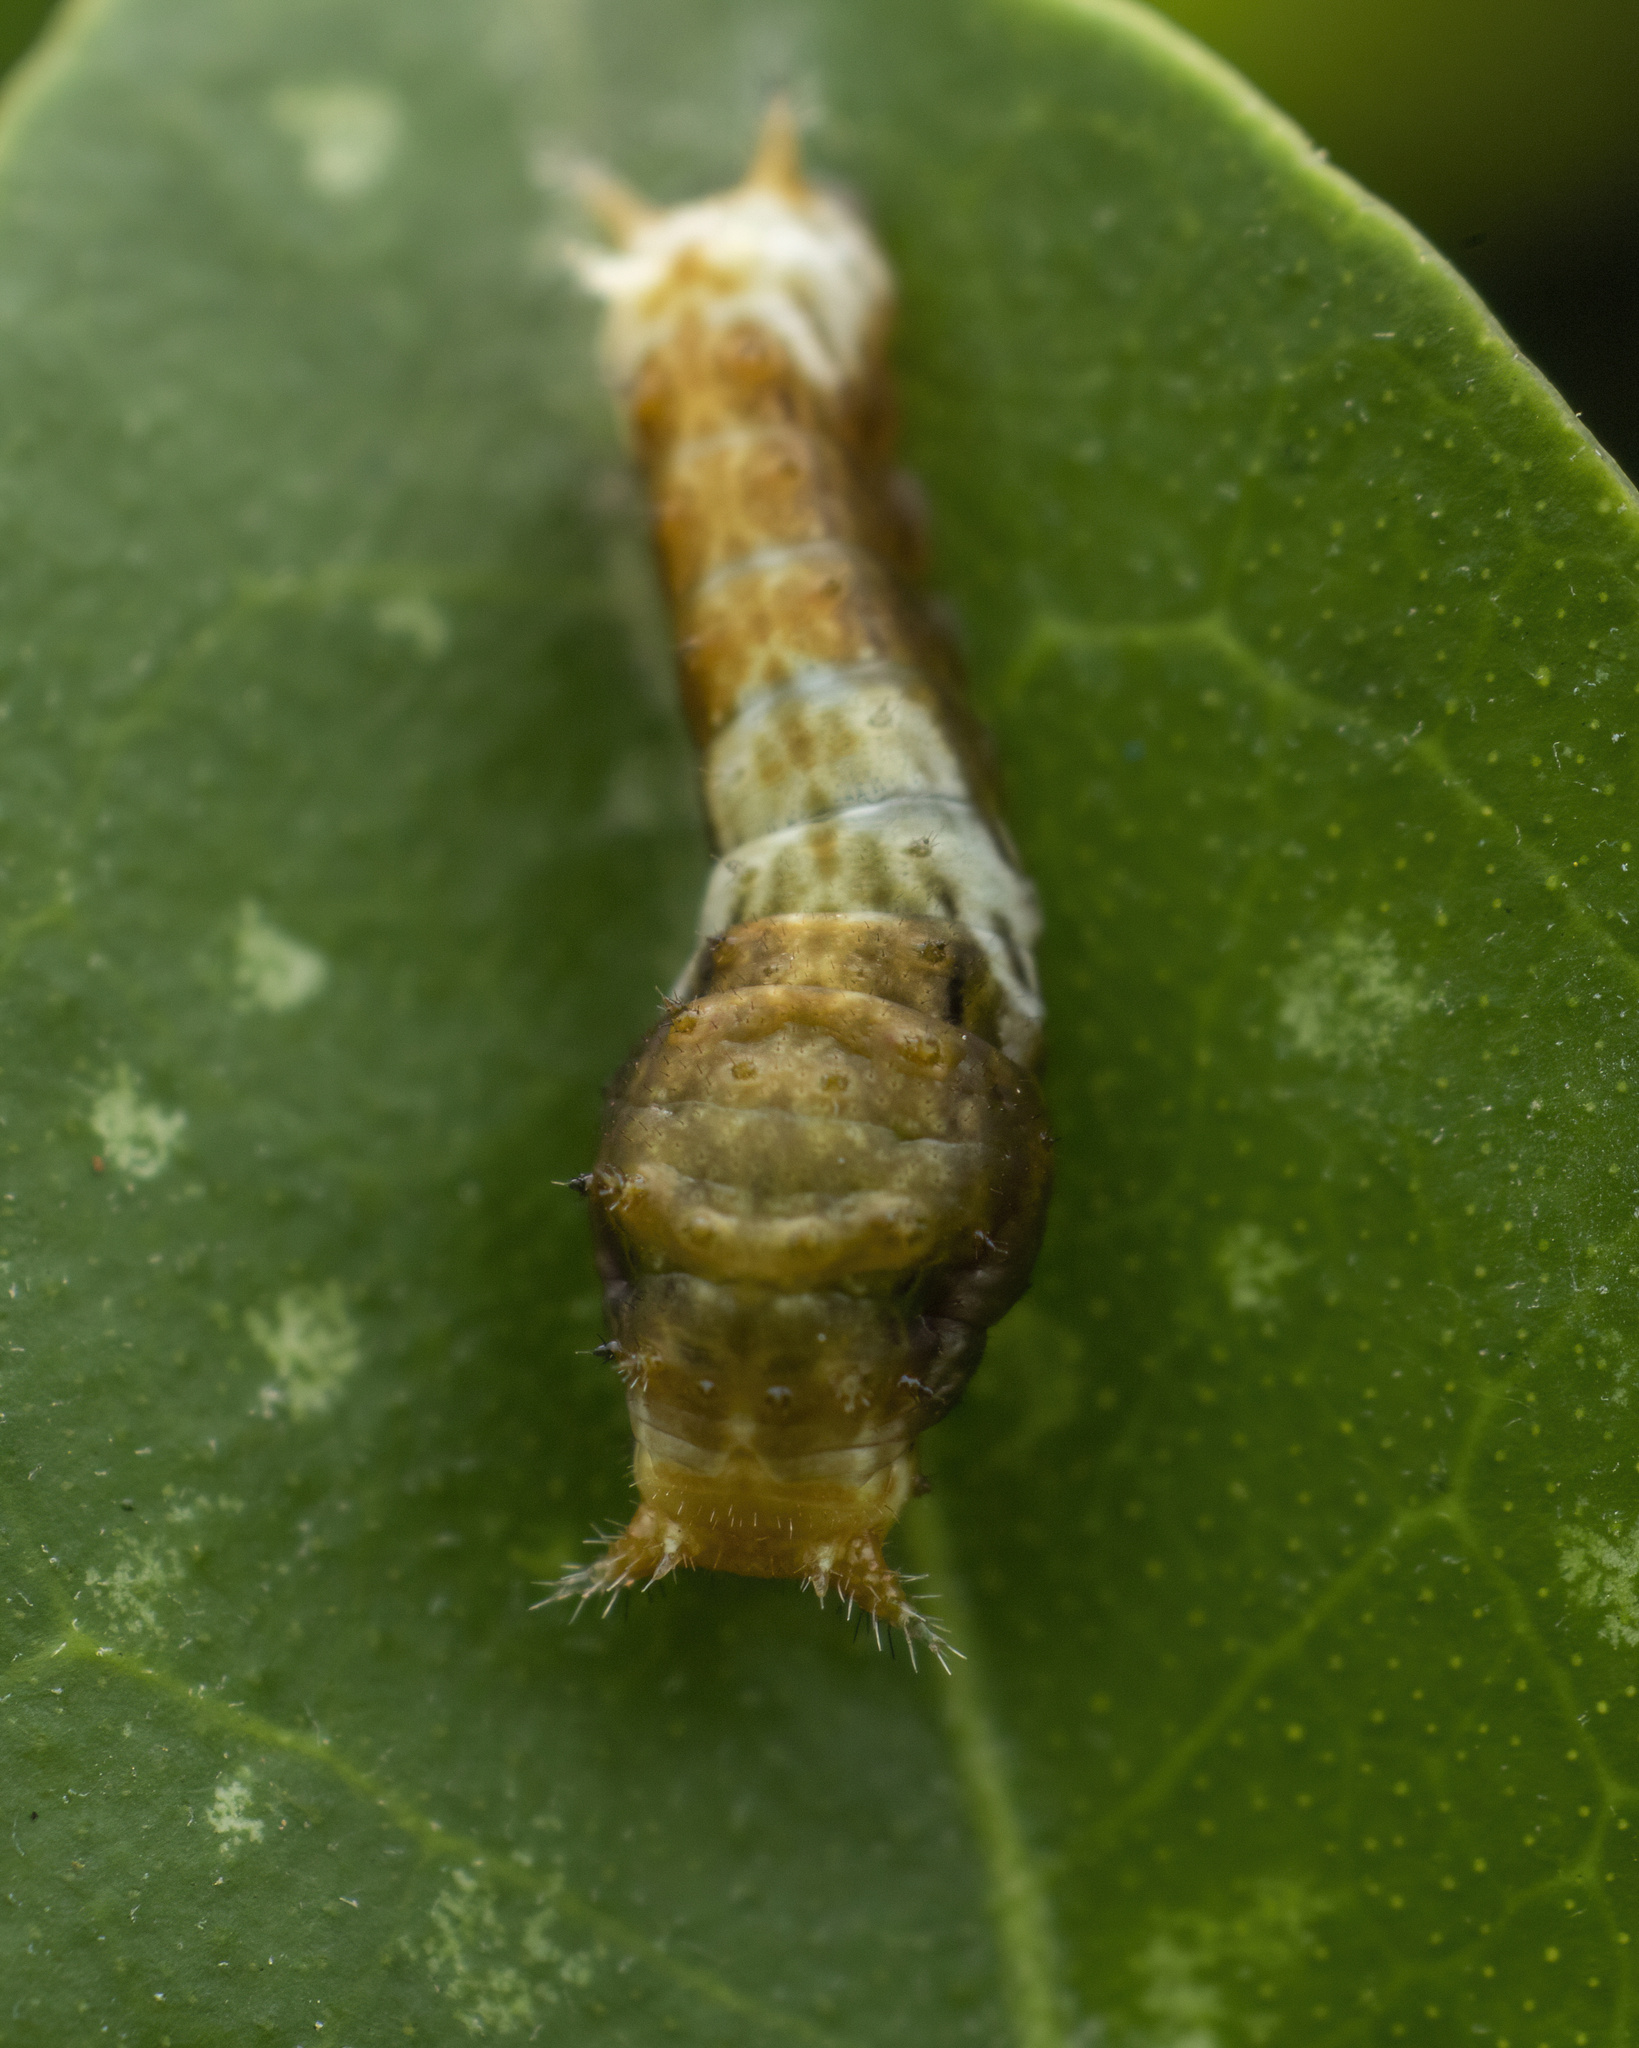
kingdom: Animalia
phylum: Arthropoda
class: Insecta
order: Lepidoptera
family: Papilionidae
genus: Papilio
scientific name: Papilio polytes
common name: Common mormon
